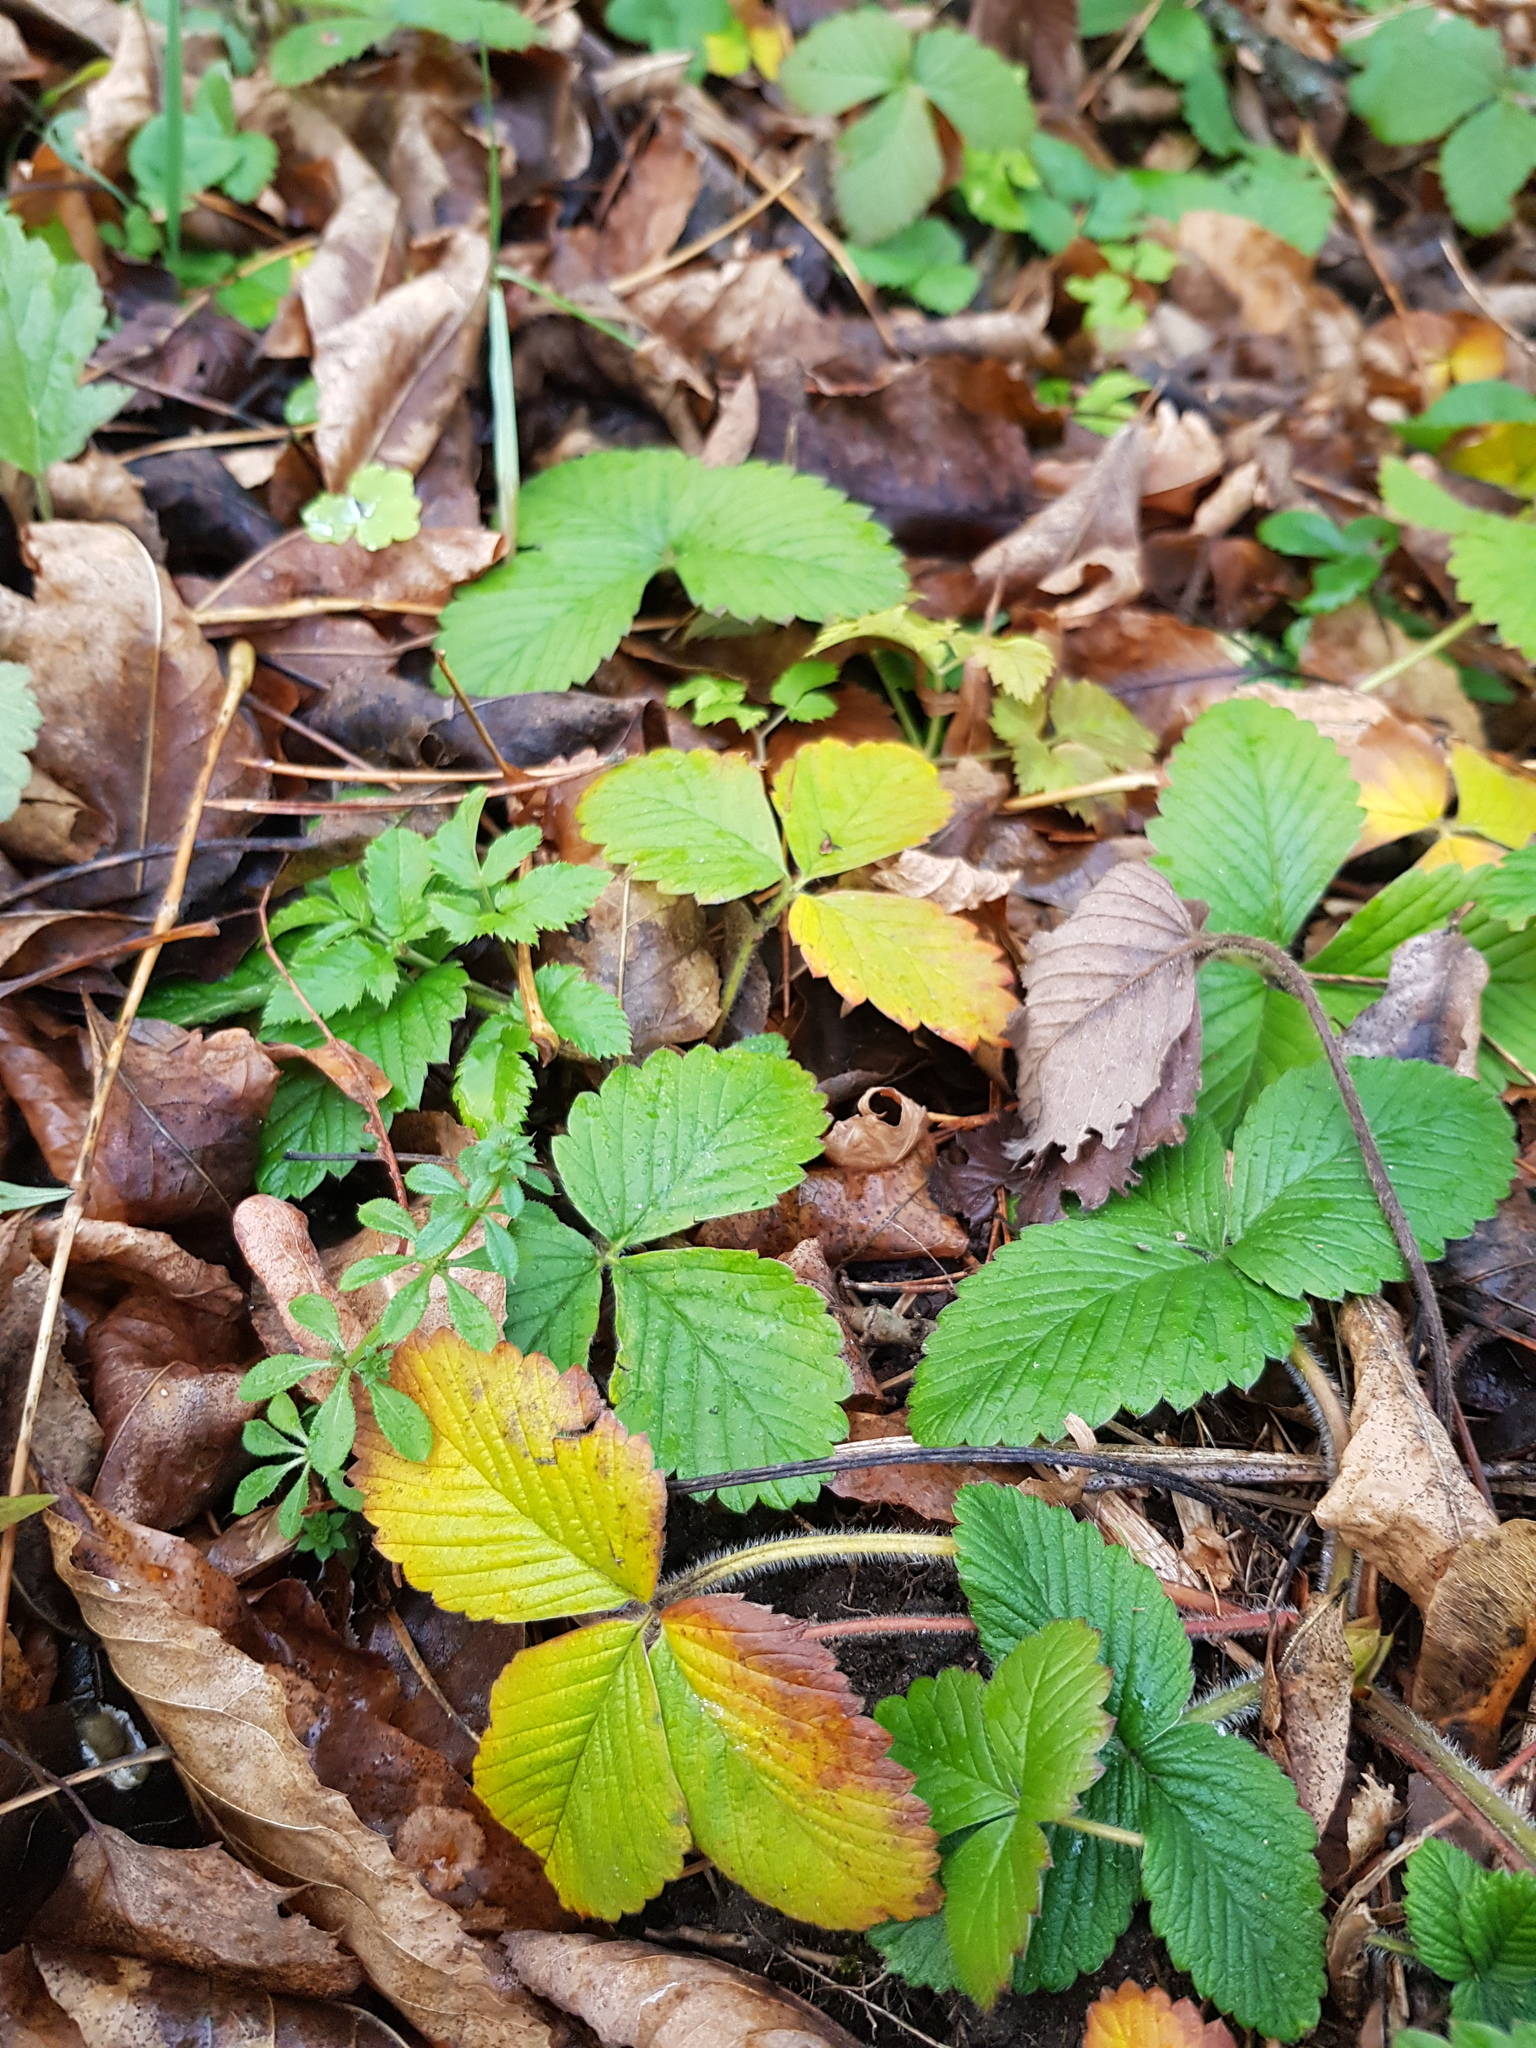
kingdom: Plantae
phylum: Tracheophyta
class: Magnoliopsida
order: Rosales
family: Rosaceae
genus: Fragaria
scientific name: Fragaria vesca
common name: Wild strawberry
